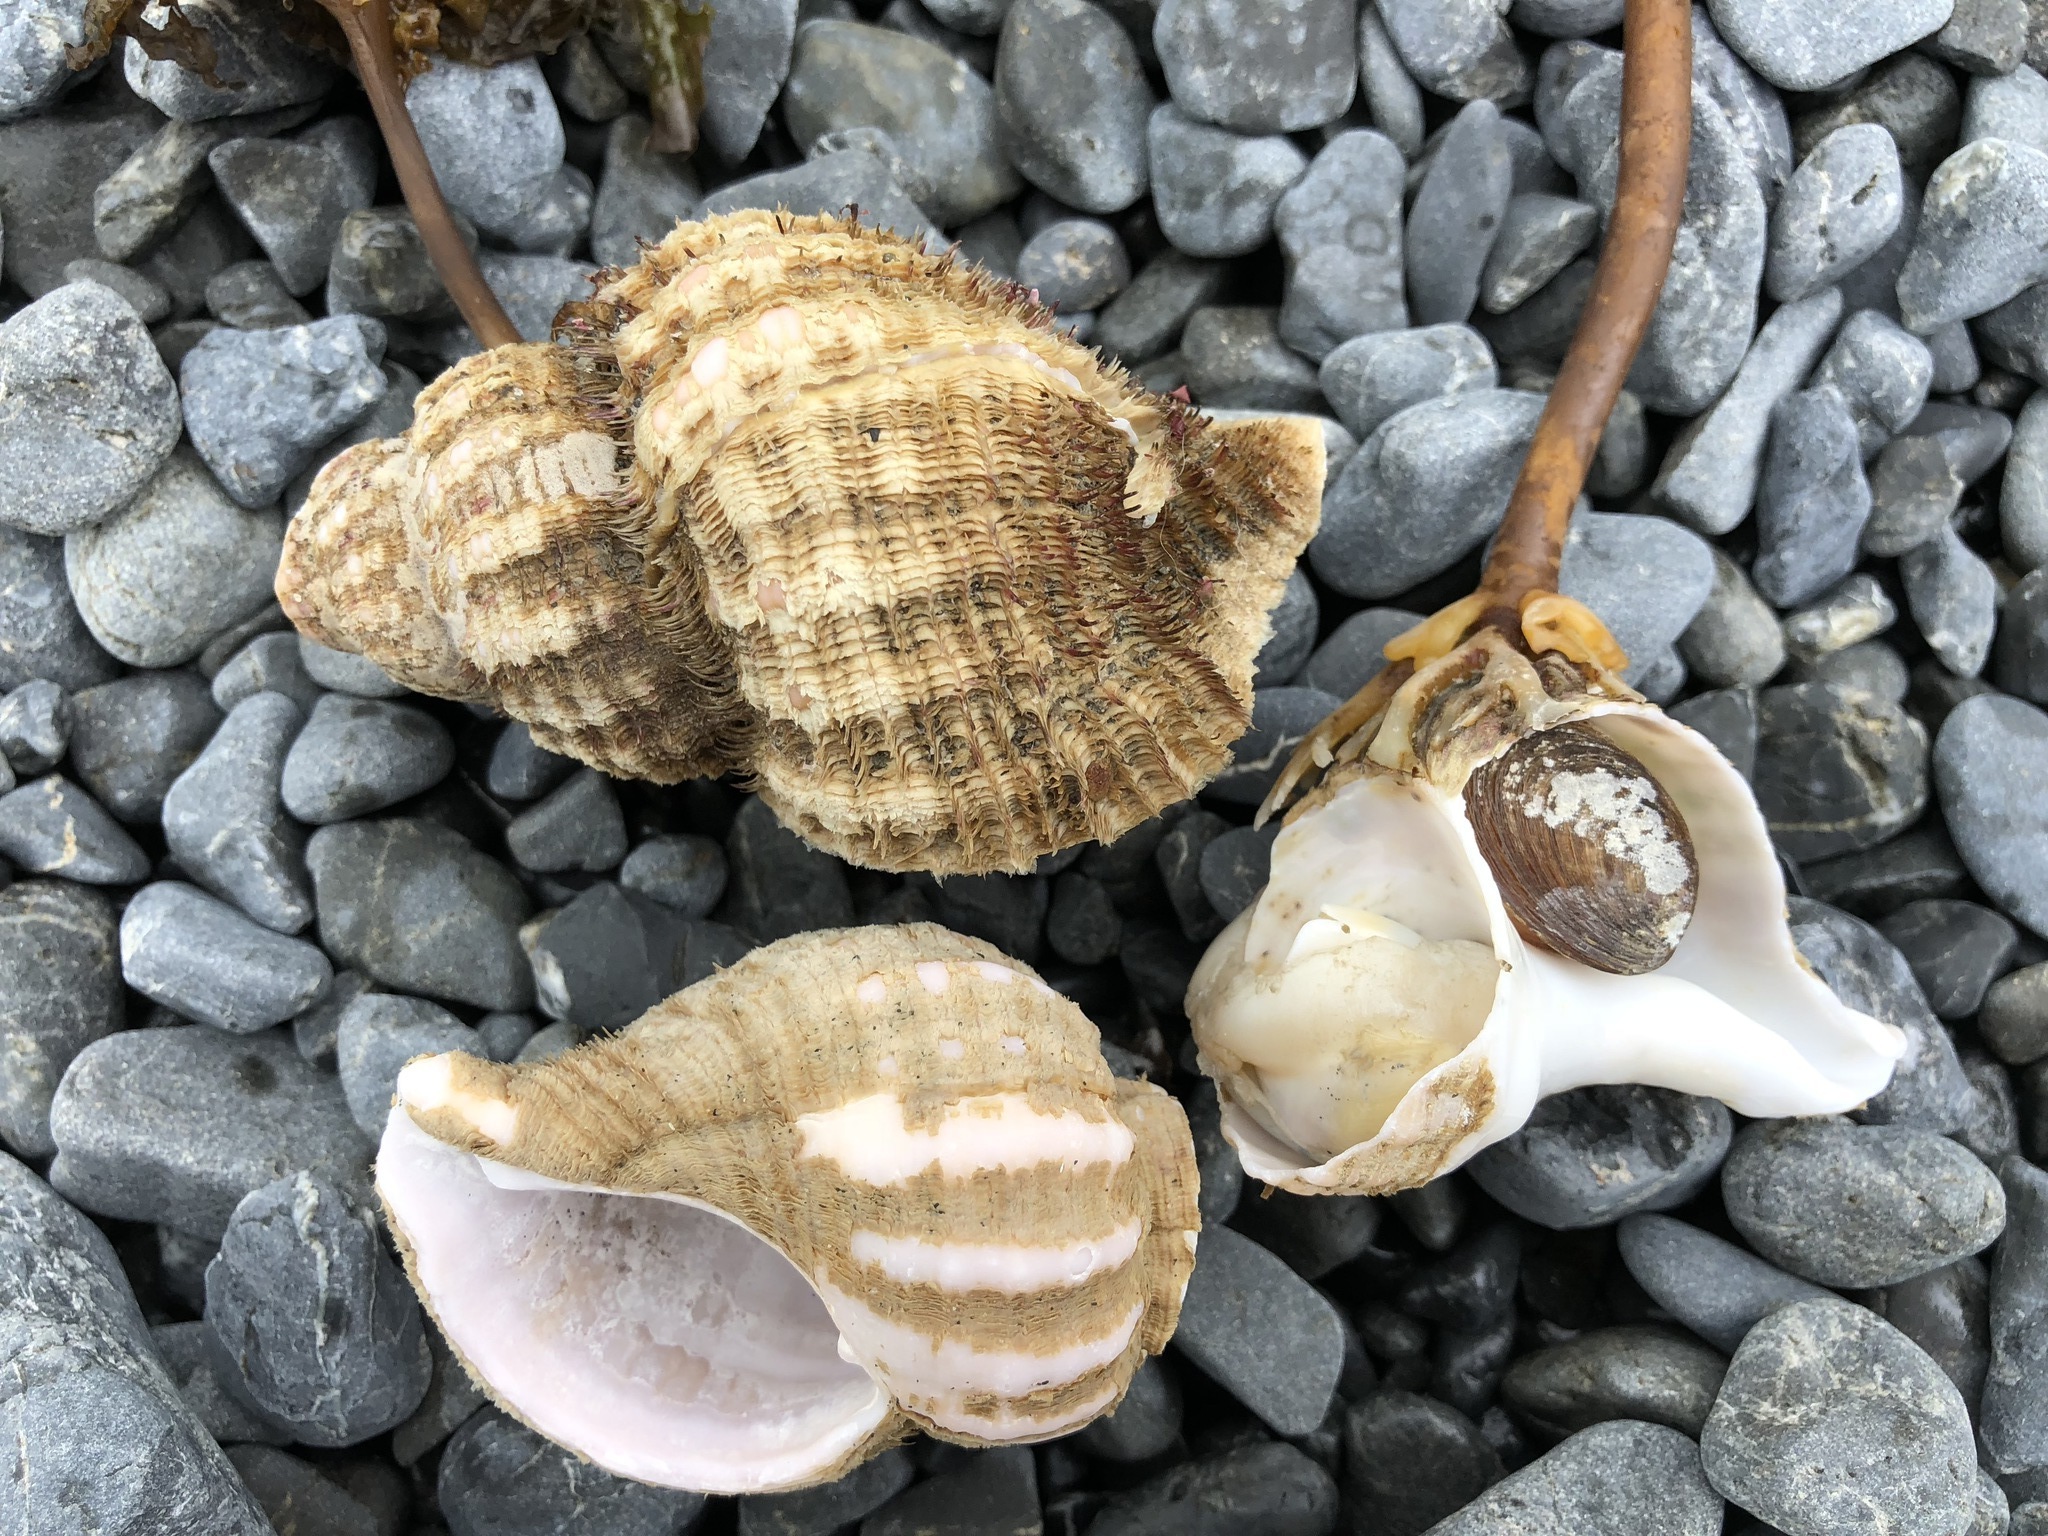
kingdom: Animalia
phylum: Mollusca
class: Gastropoda
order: Littorinimorpha
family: Cymatiidae
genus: Fusitriton
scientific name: Fusitriton oregonensis
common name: Oregon hairy triton
